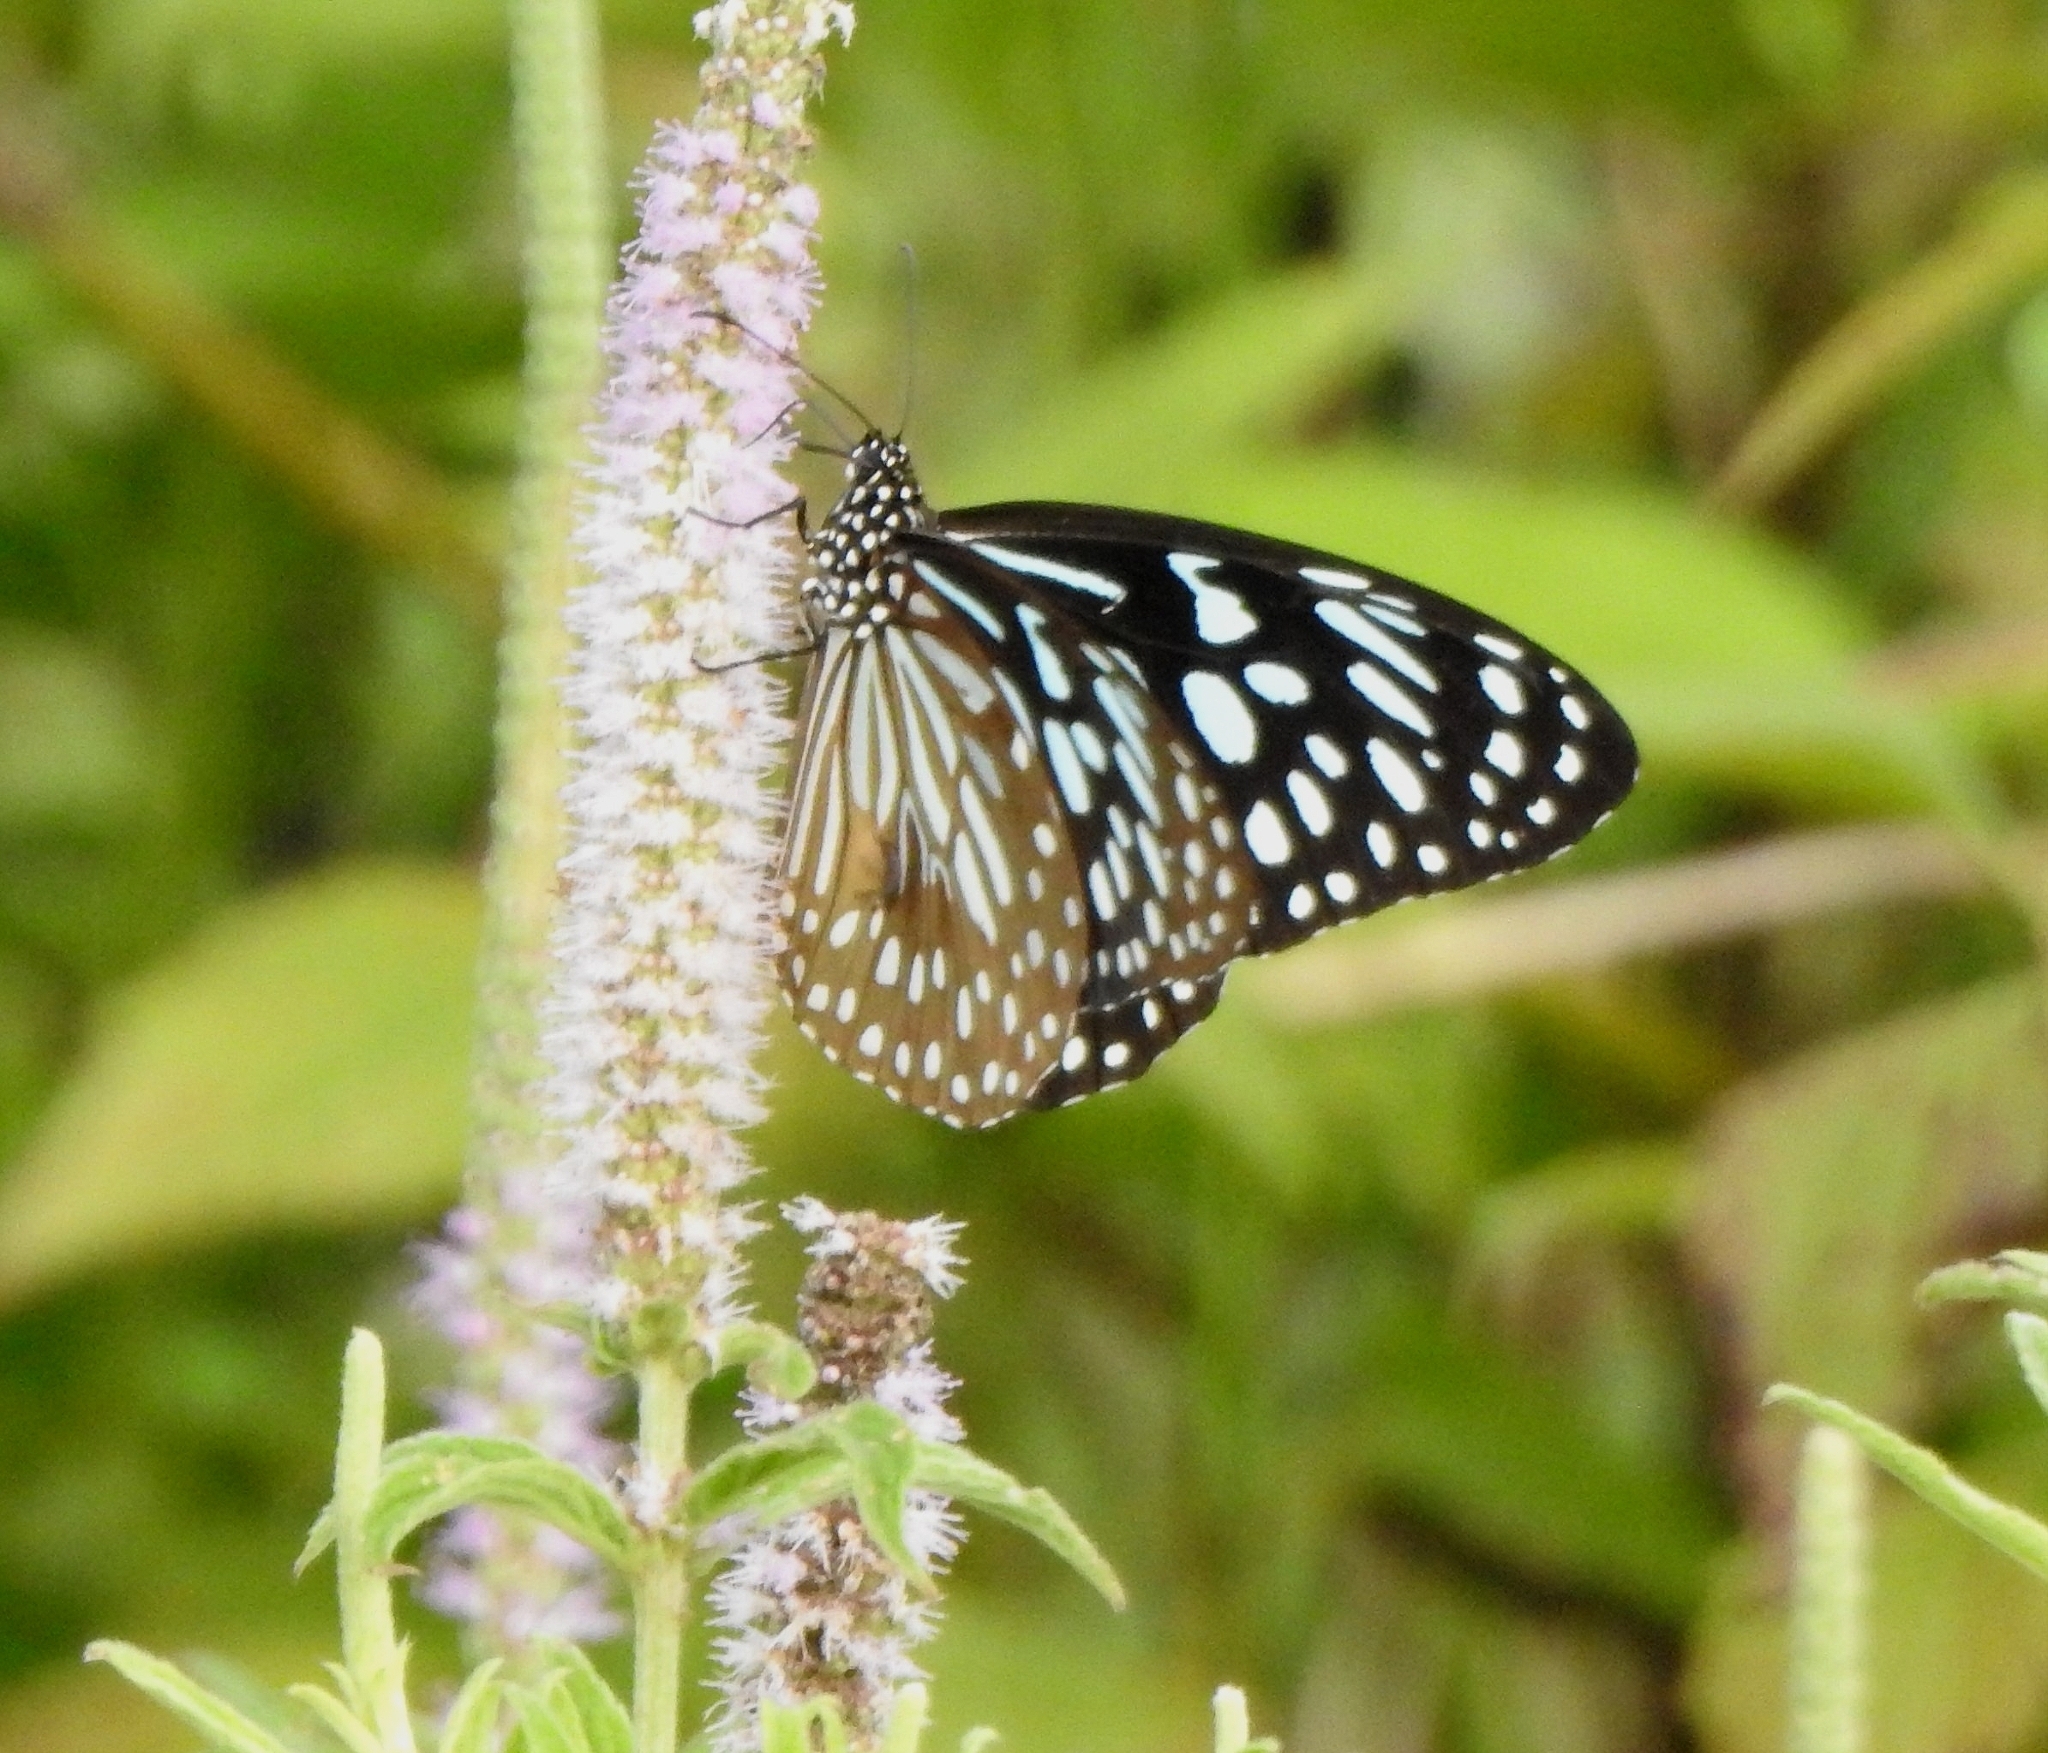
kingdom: Animalia
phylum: Arthropoda
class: Insecta
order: Lepidoptera
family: Nymphalidae
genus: Tirumala
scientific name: Tirumala septentrionis
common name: Dark blue tiger butterfly
